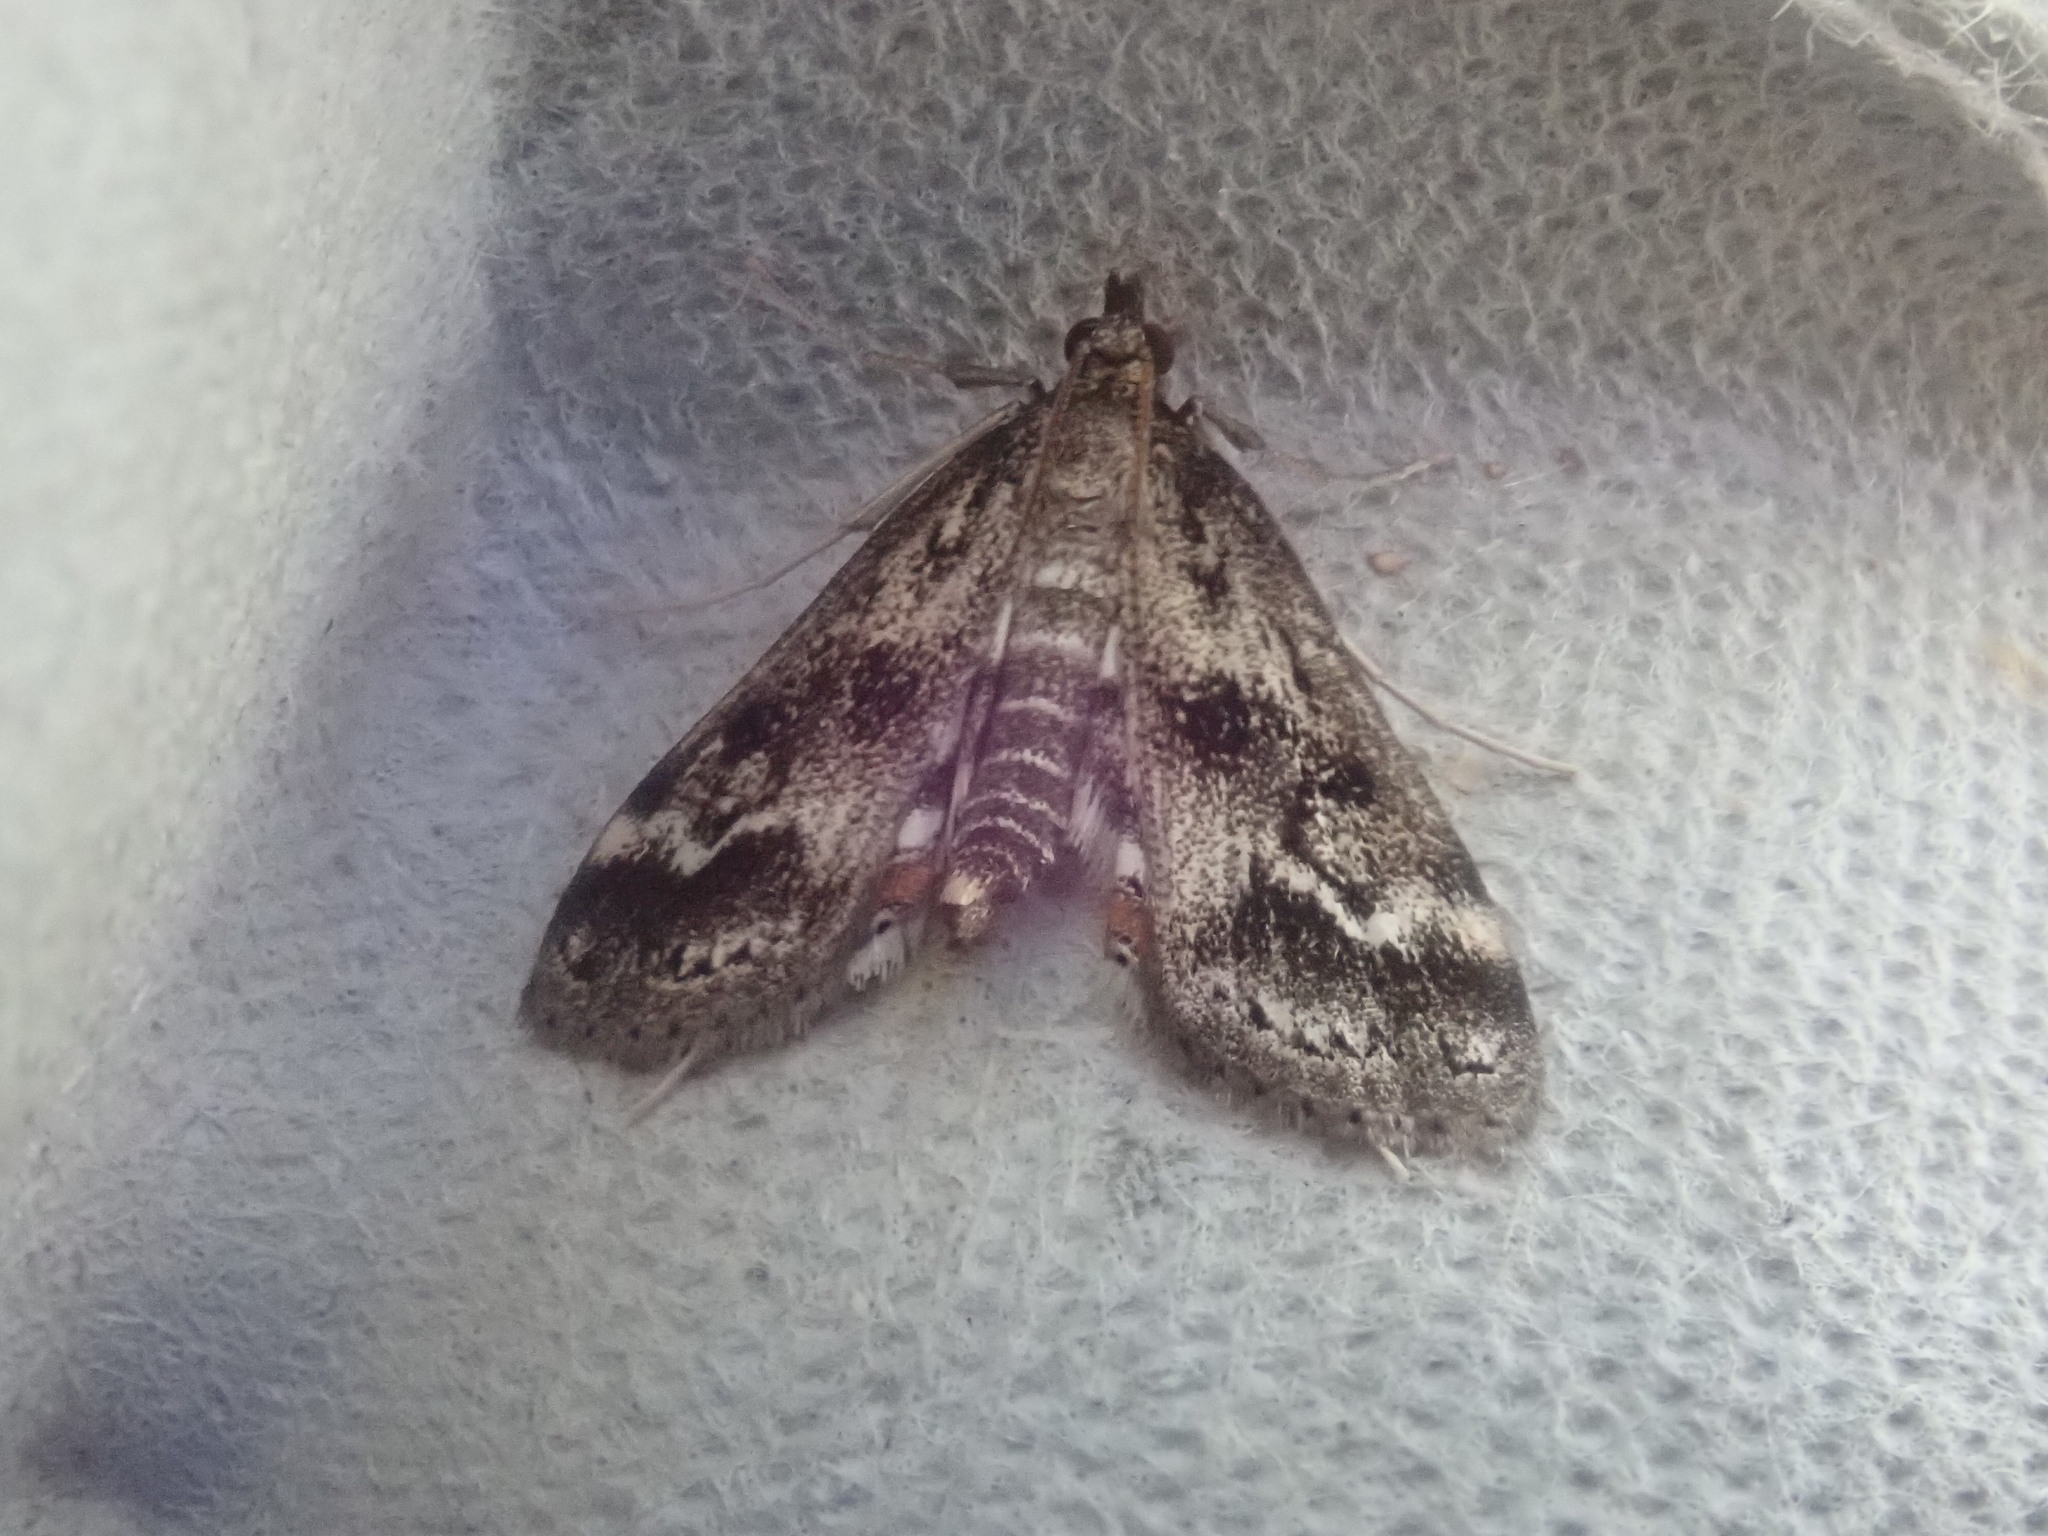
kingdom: Animalia
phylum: Arthropoda
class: Insecta
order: Lepidoptera
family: Crambidae
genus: Parapoynx
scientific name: Parapoynx obscuralis
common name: American china-mark
